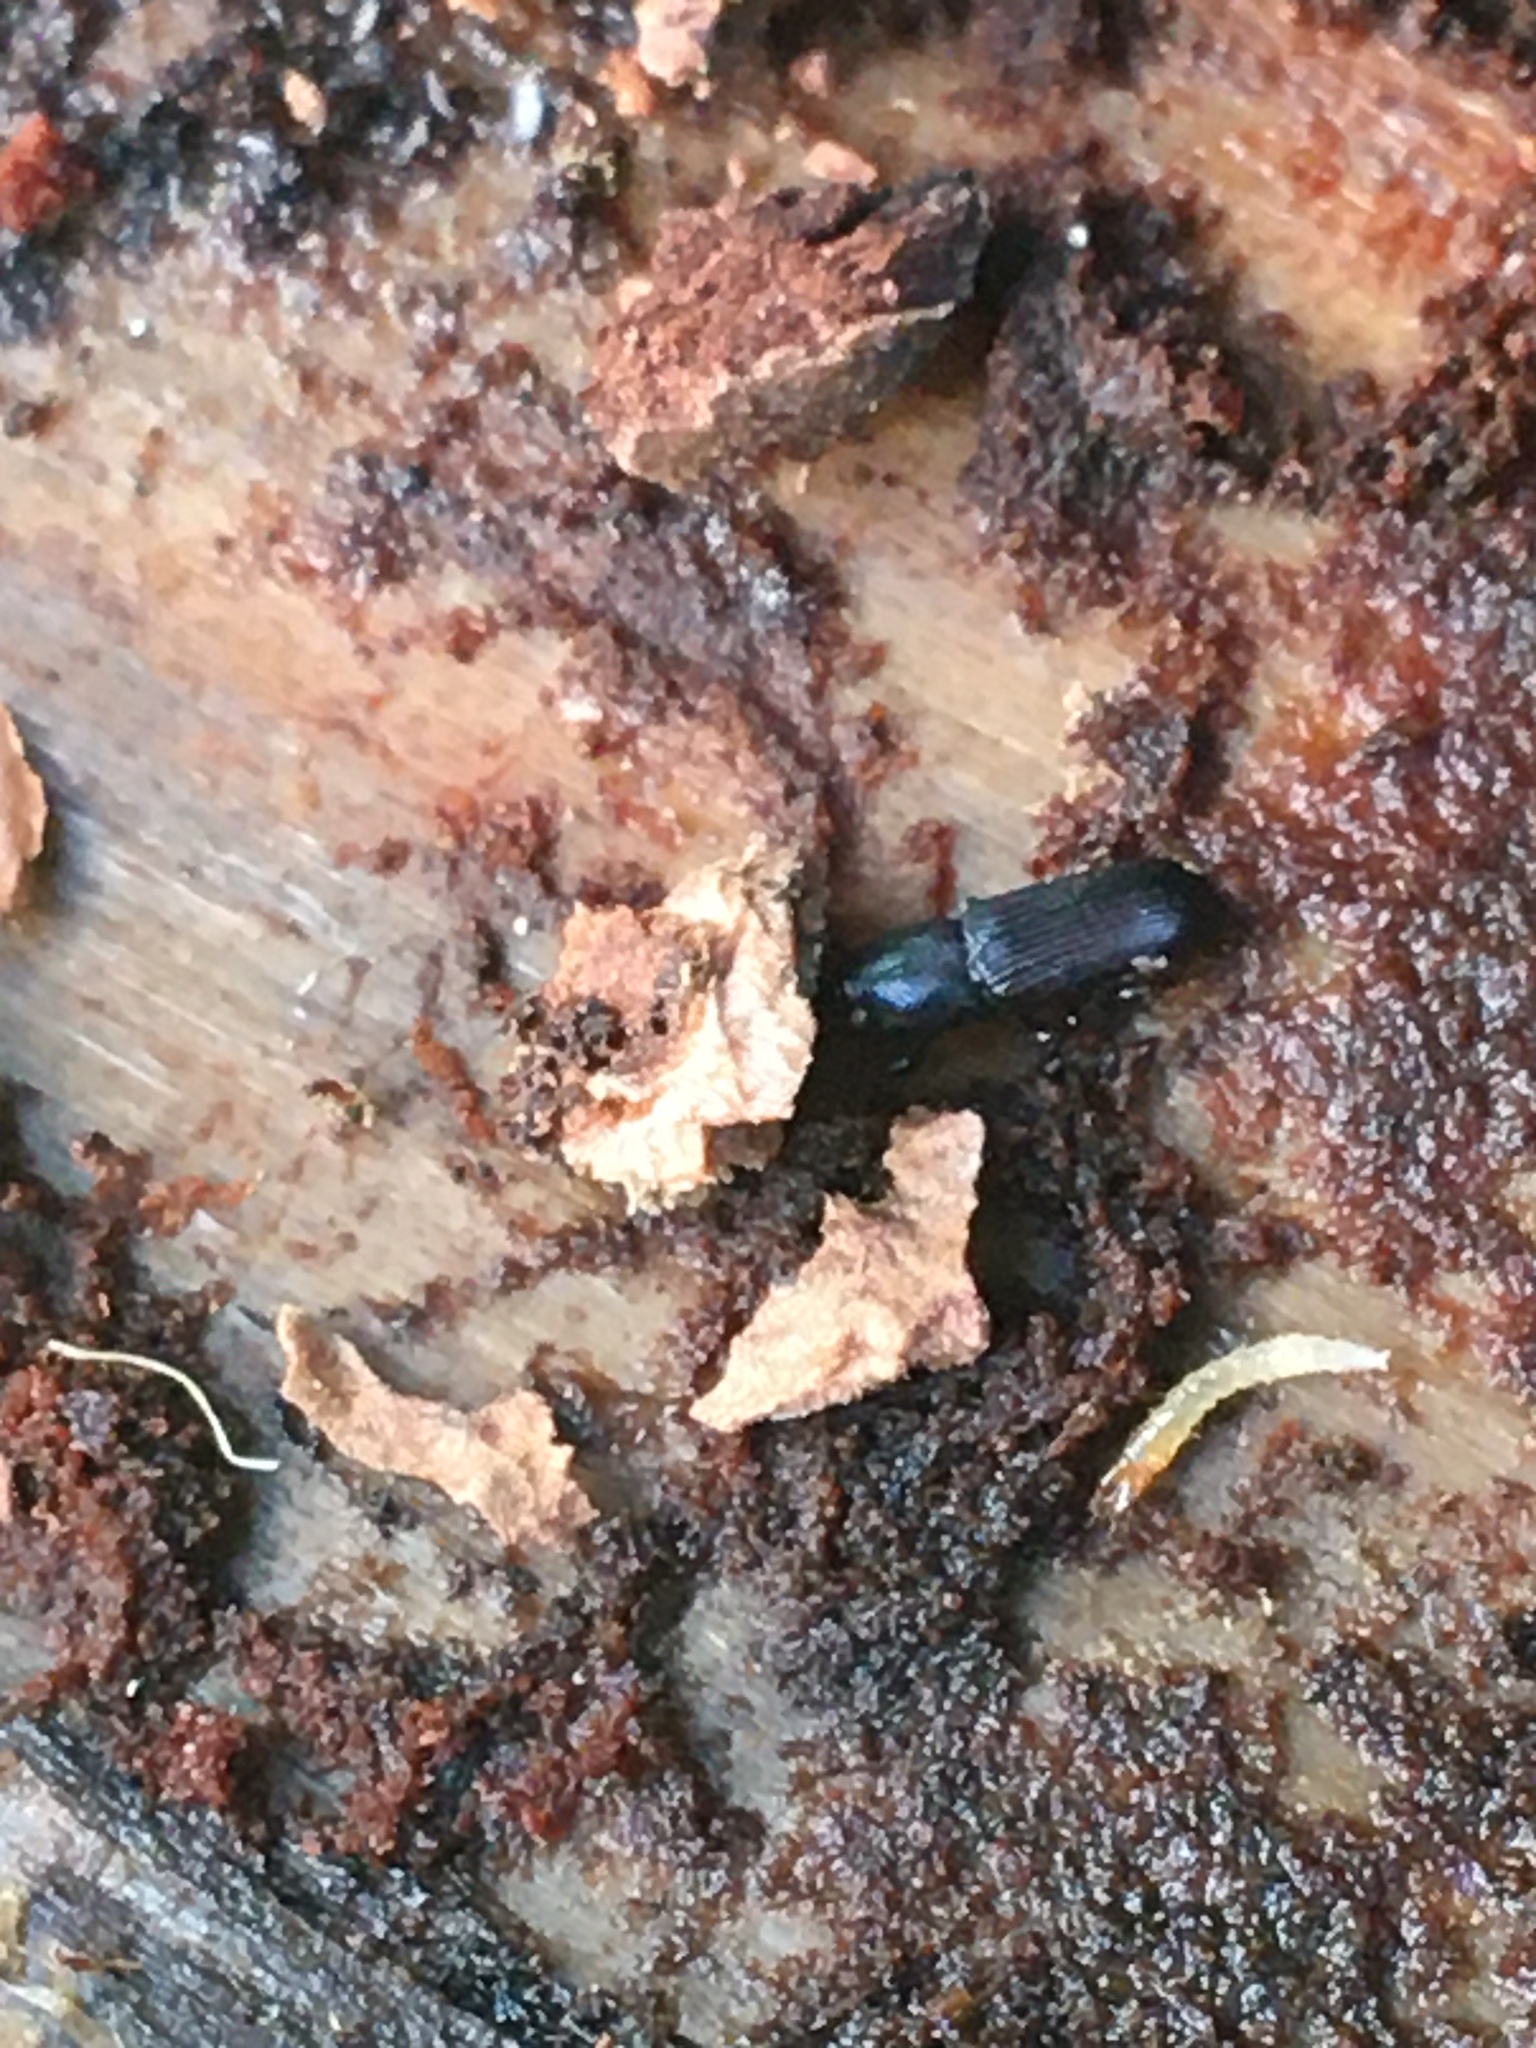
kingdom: Animalia
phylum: Arthropoda
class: Insecta
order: Coleoptera
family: Curculionidae
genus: Cossonus
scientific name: Cossonus
